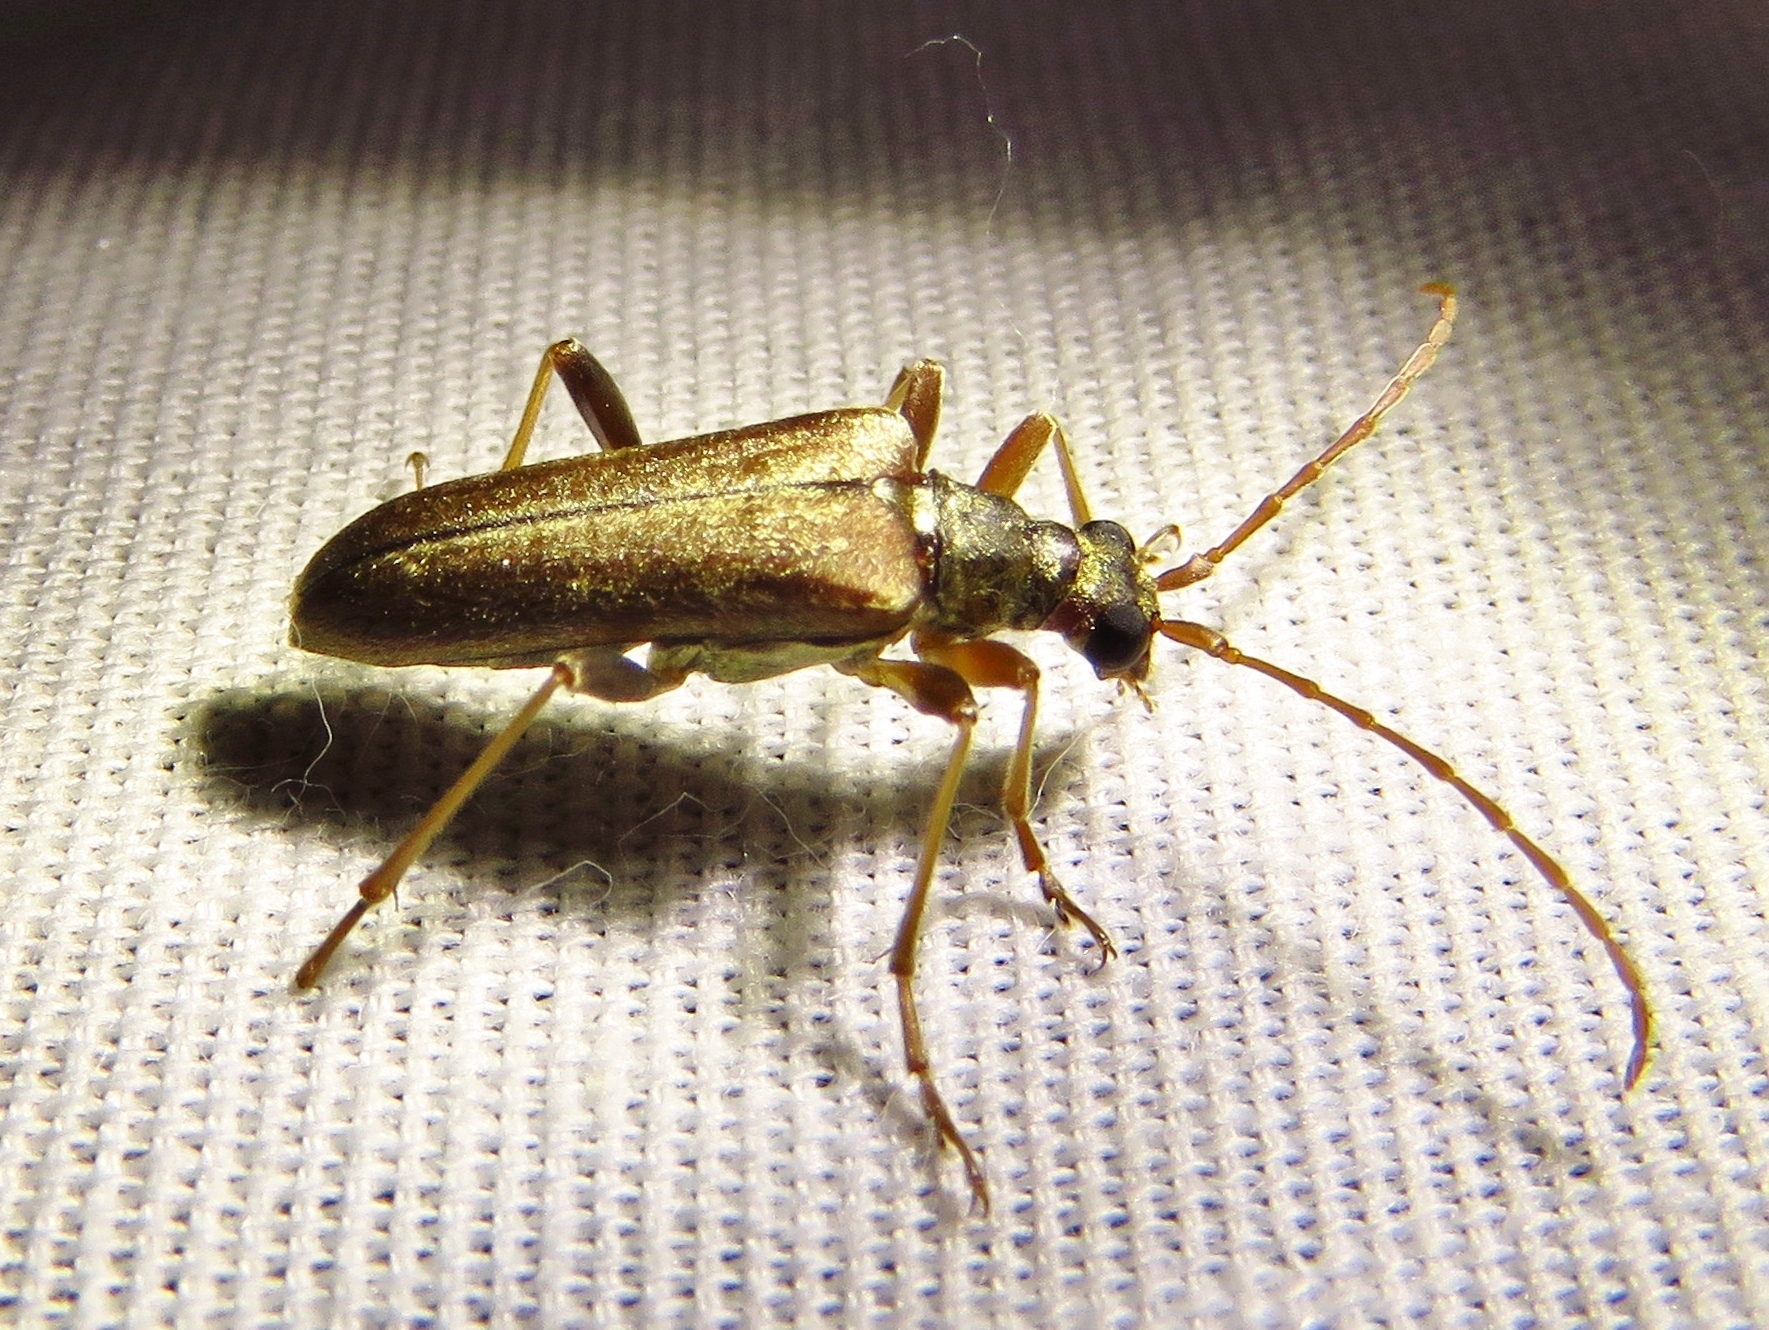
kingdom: Animalia
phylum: Arthropoda
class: Insecta
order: Coleoptera
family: Cerambycidae
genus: Stenocorus
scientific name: Stenocorus cinnamopterus
